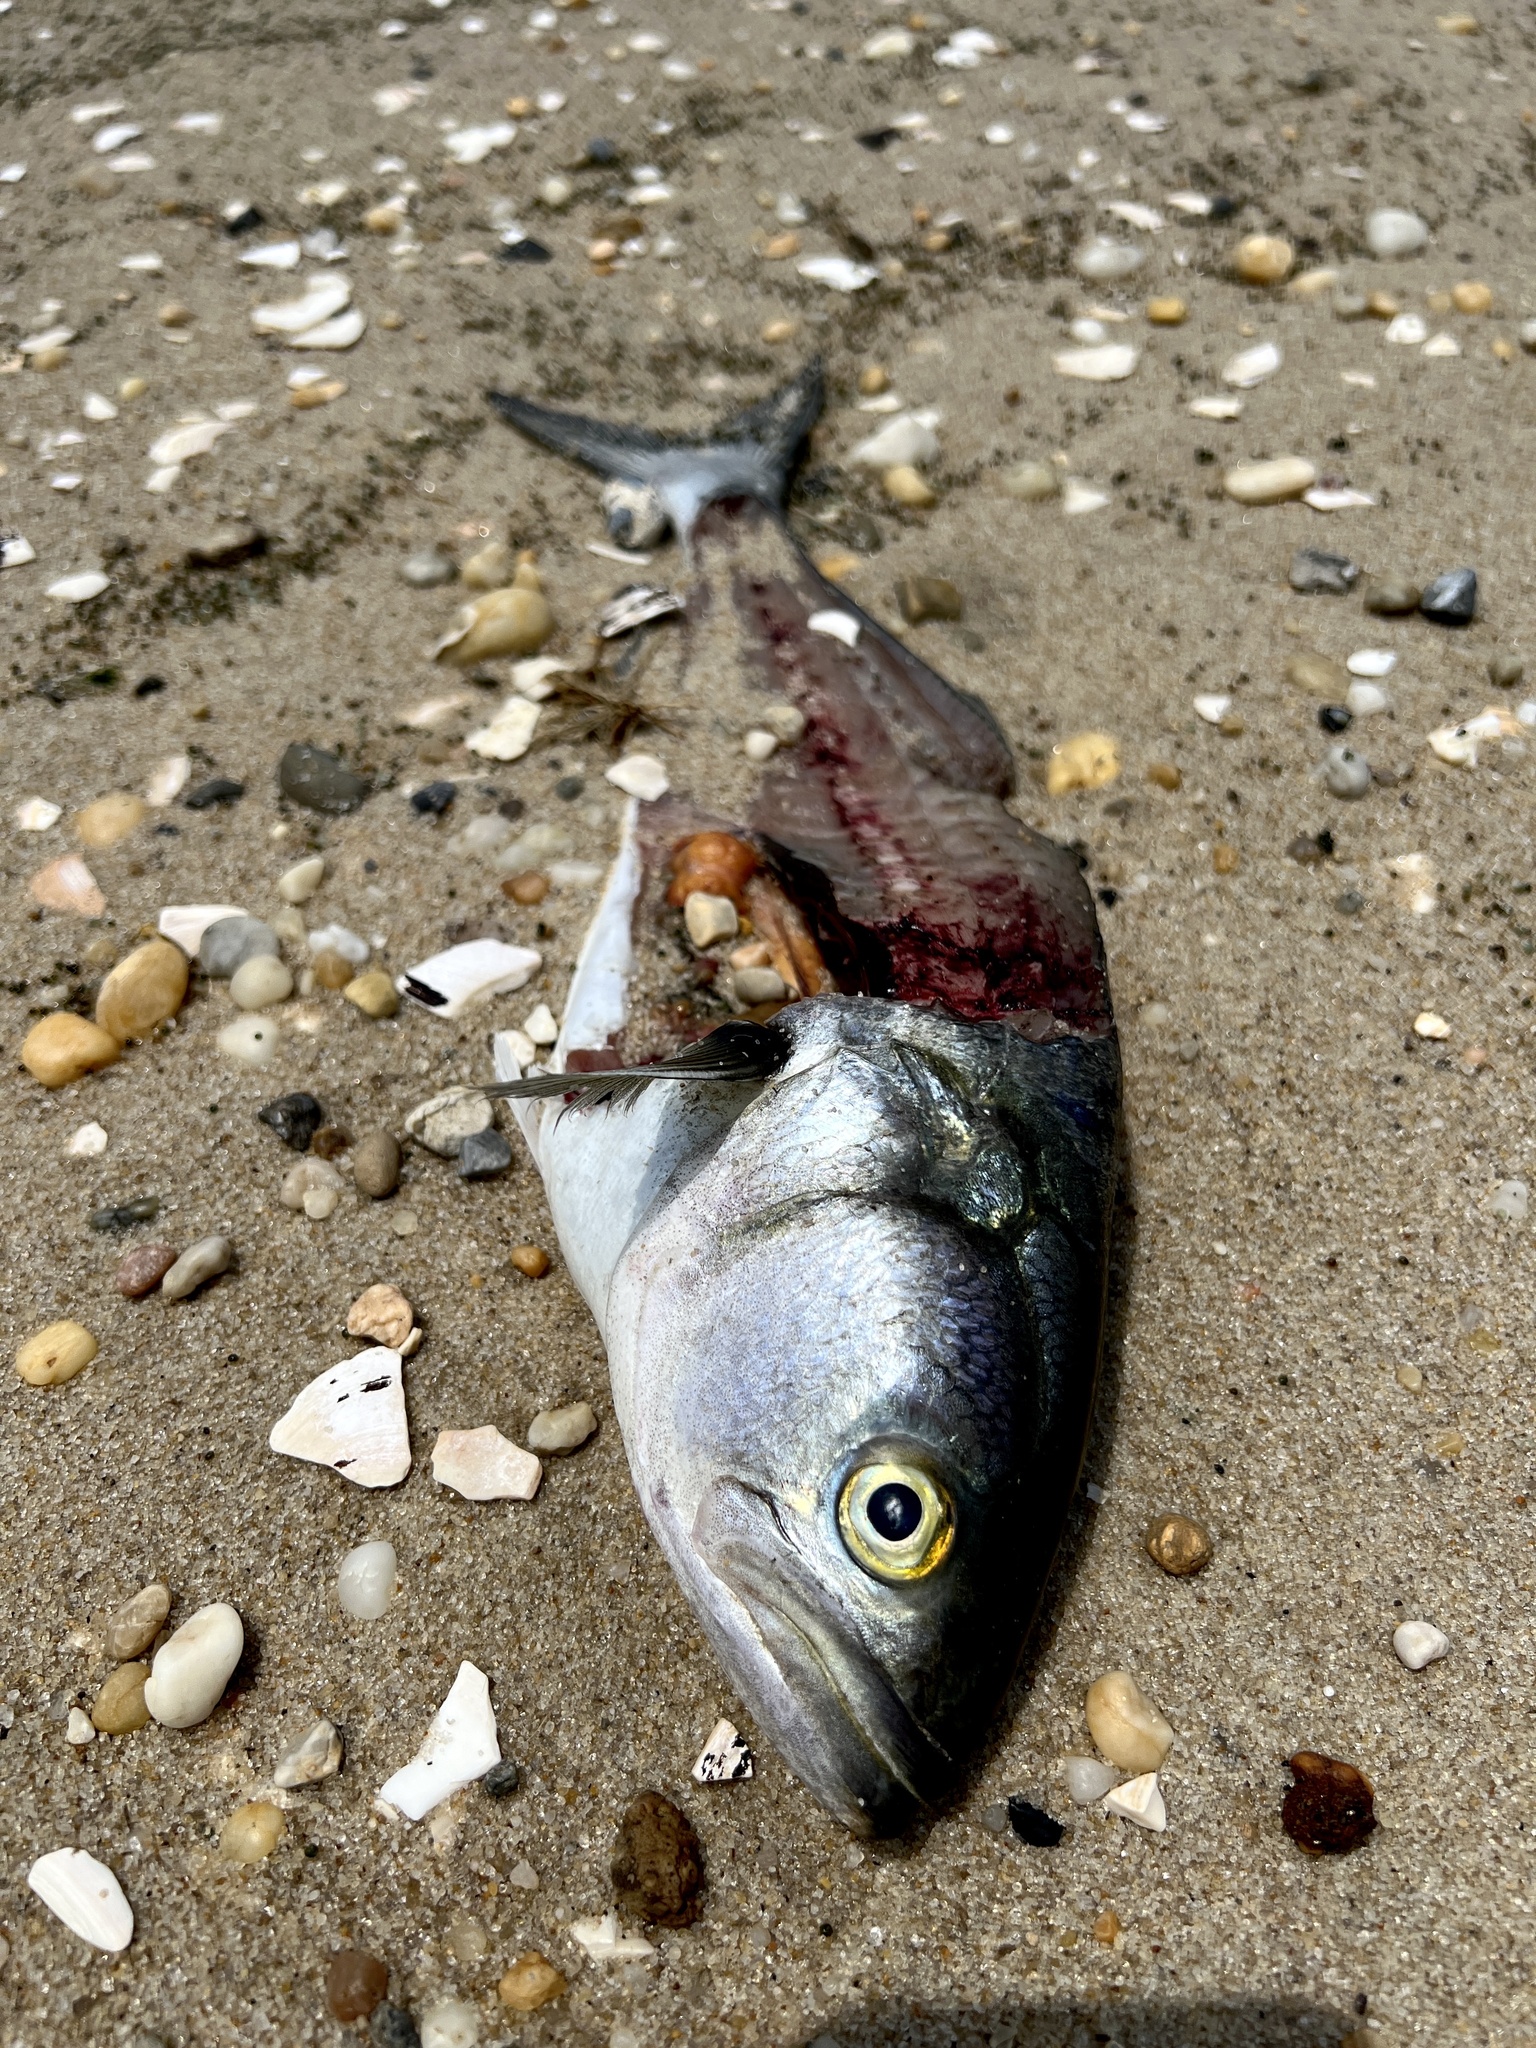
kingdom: Animalia
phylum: Chordata
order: Perciformes
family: Pomatomidae
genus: Pomatomus
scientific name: Pomatomus saltatrix
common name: Bluefish
